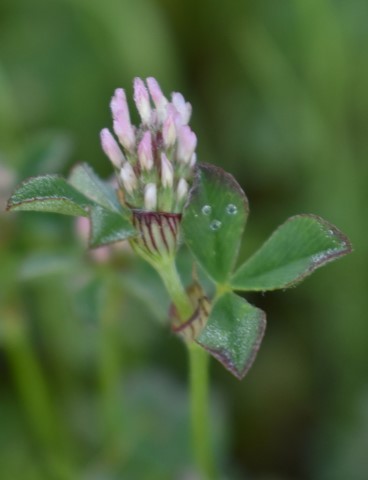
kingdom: Plantae
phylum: Tracheophyta
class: Magnoliopsida
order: Fabales
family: Fabaceae
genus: Trifolium
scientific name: Trifolium striatum
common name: Knotted clover
